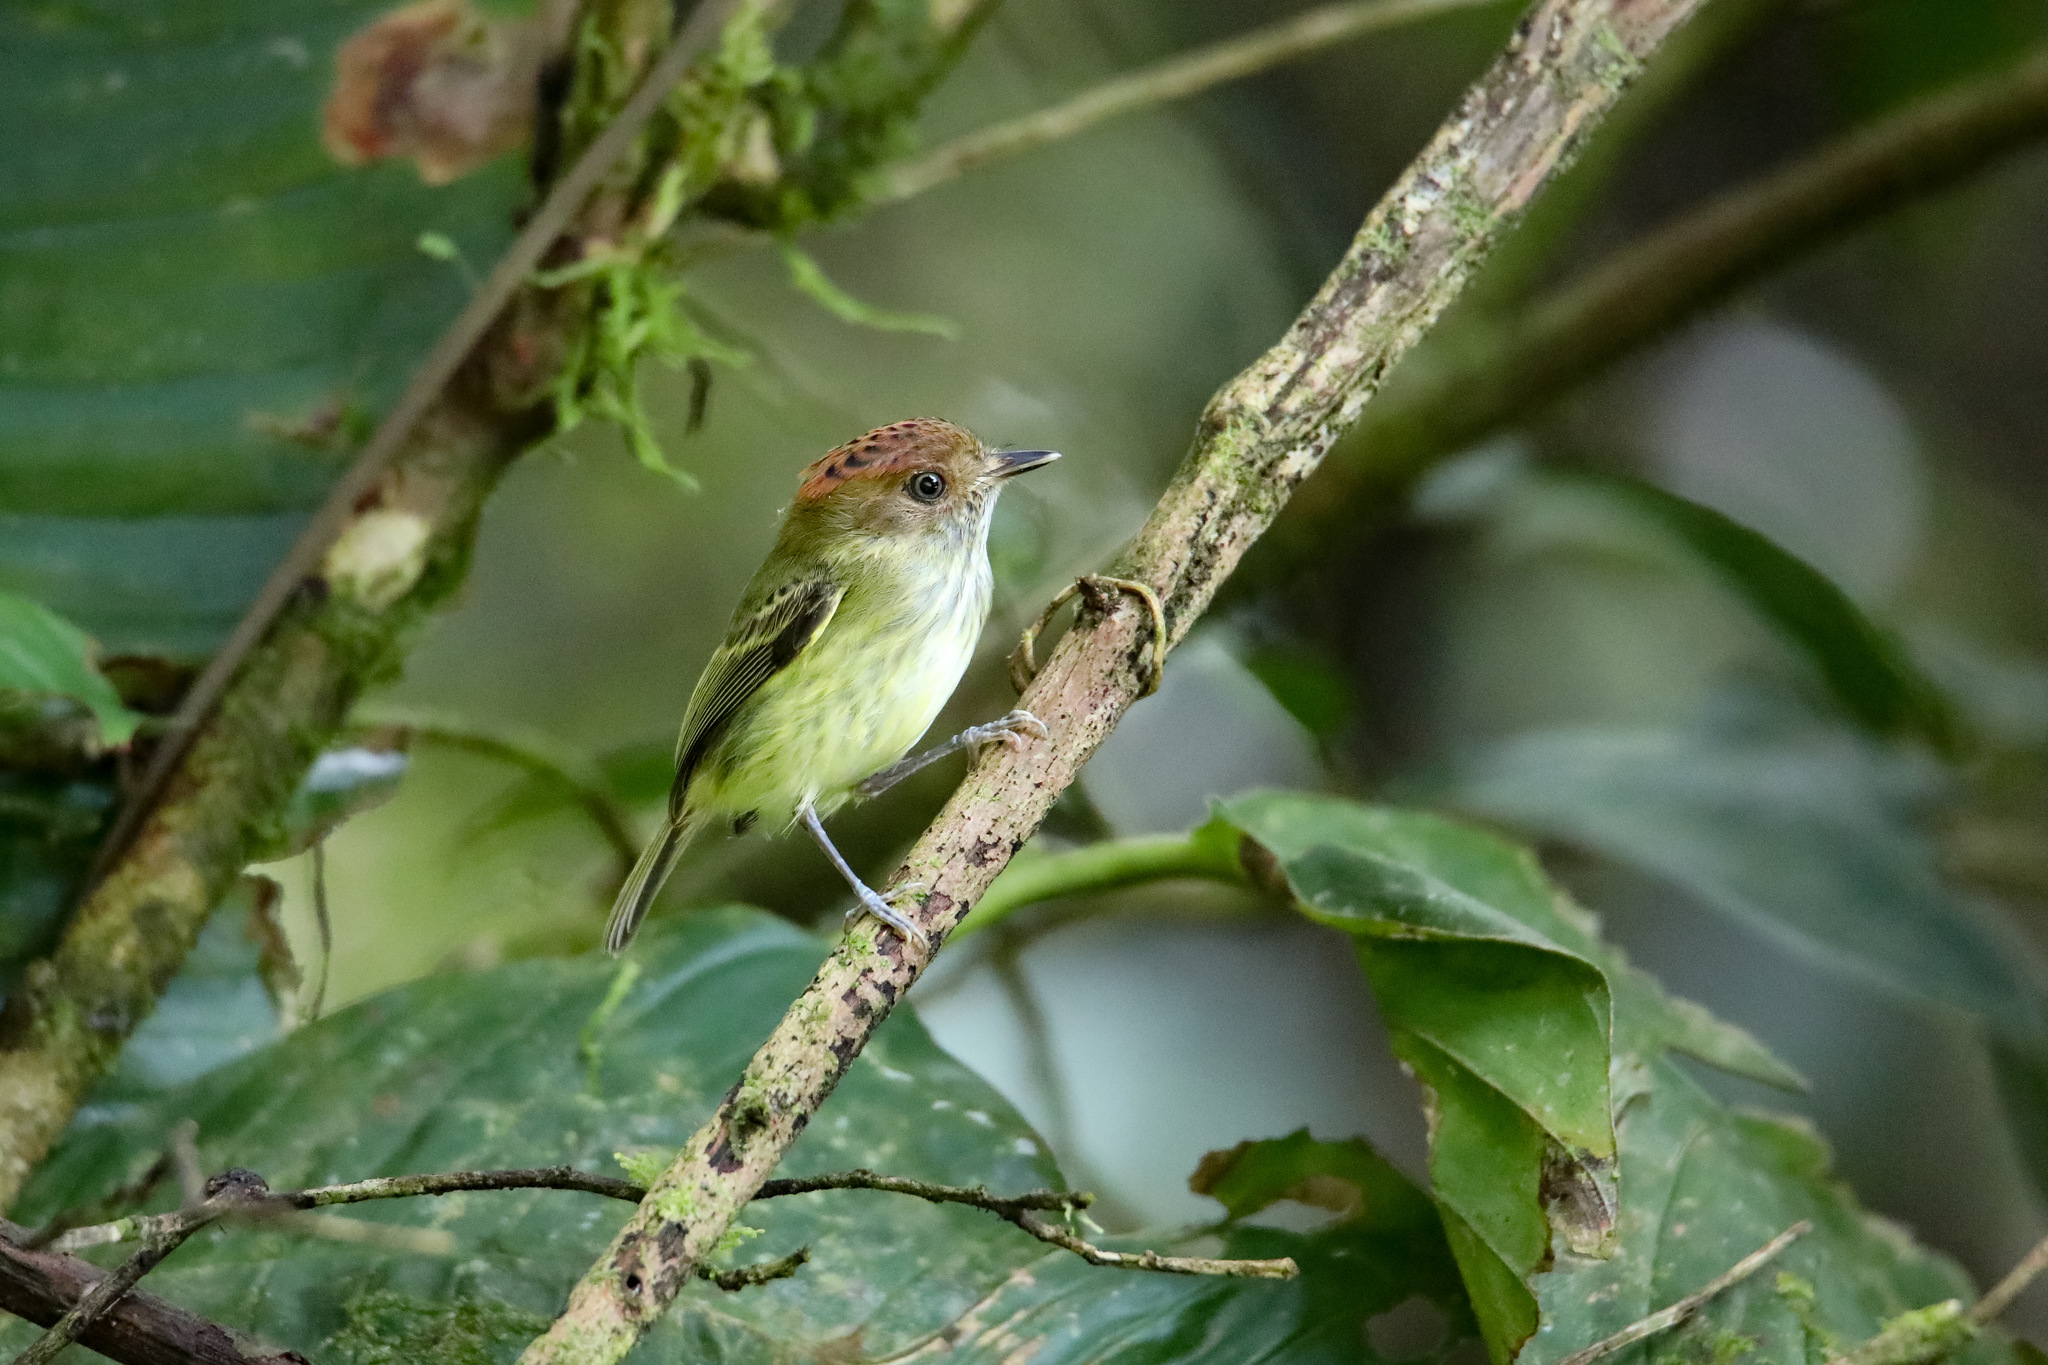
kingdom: Animalia
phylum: Chordata
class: Aves
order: Passeriformes
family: Tyrannidae
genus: Lophotriccus
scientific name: Lophotriccus pileatus
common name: Scale-crested pygmy-tyrant
